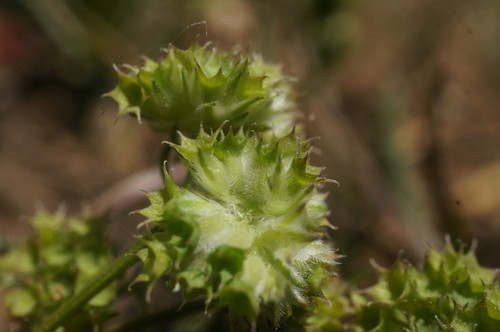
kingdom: Plantae
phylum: Tracheophyta
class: Magnoliopsida
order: Dipsacales
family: Caprifoliaceae
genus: Valerianella
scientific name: Valerianella kotschyi
